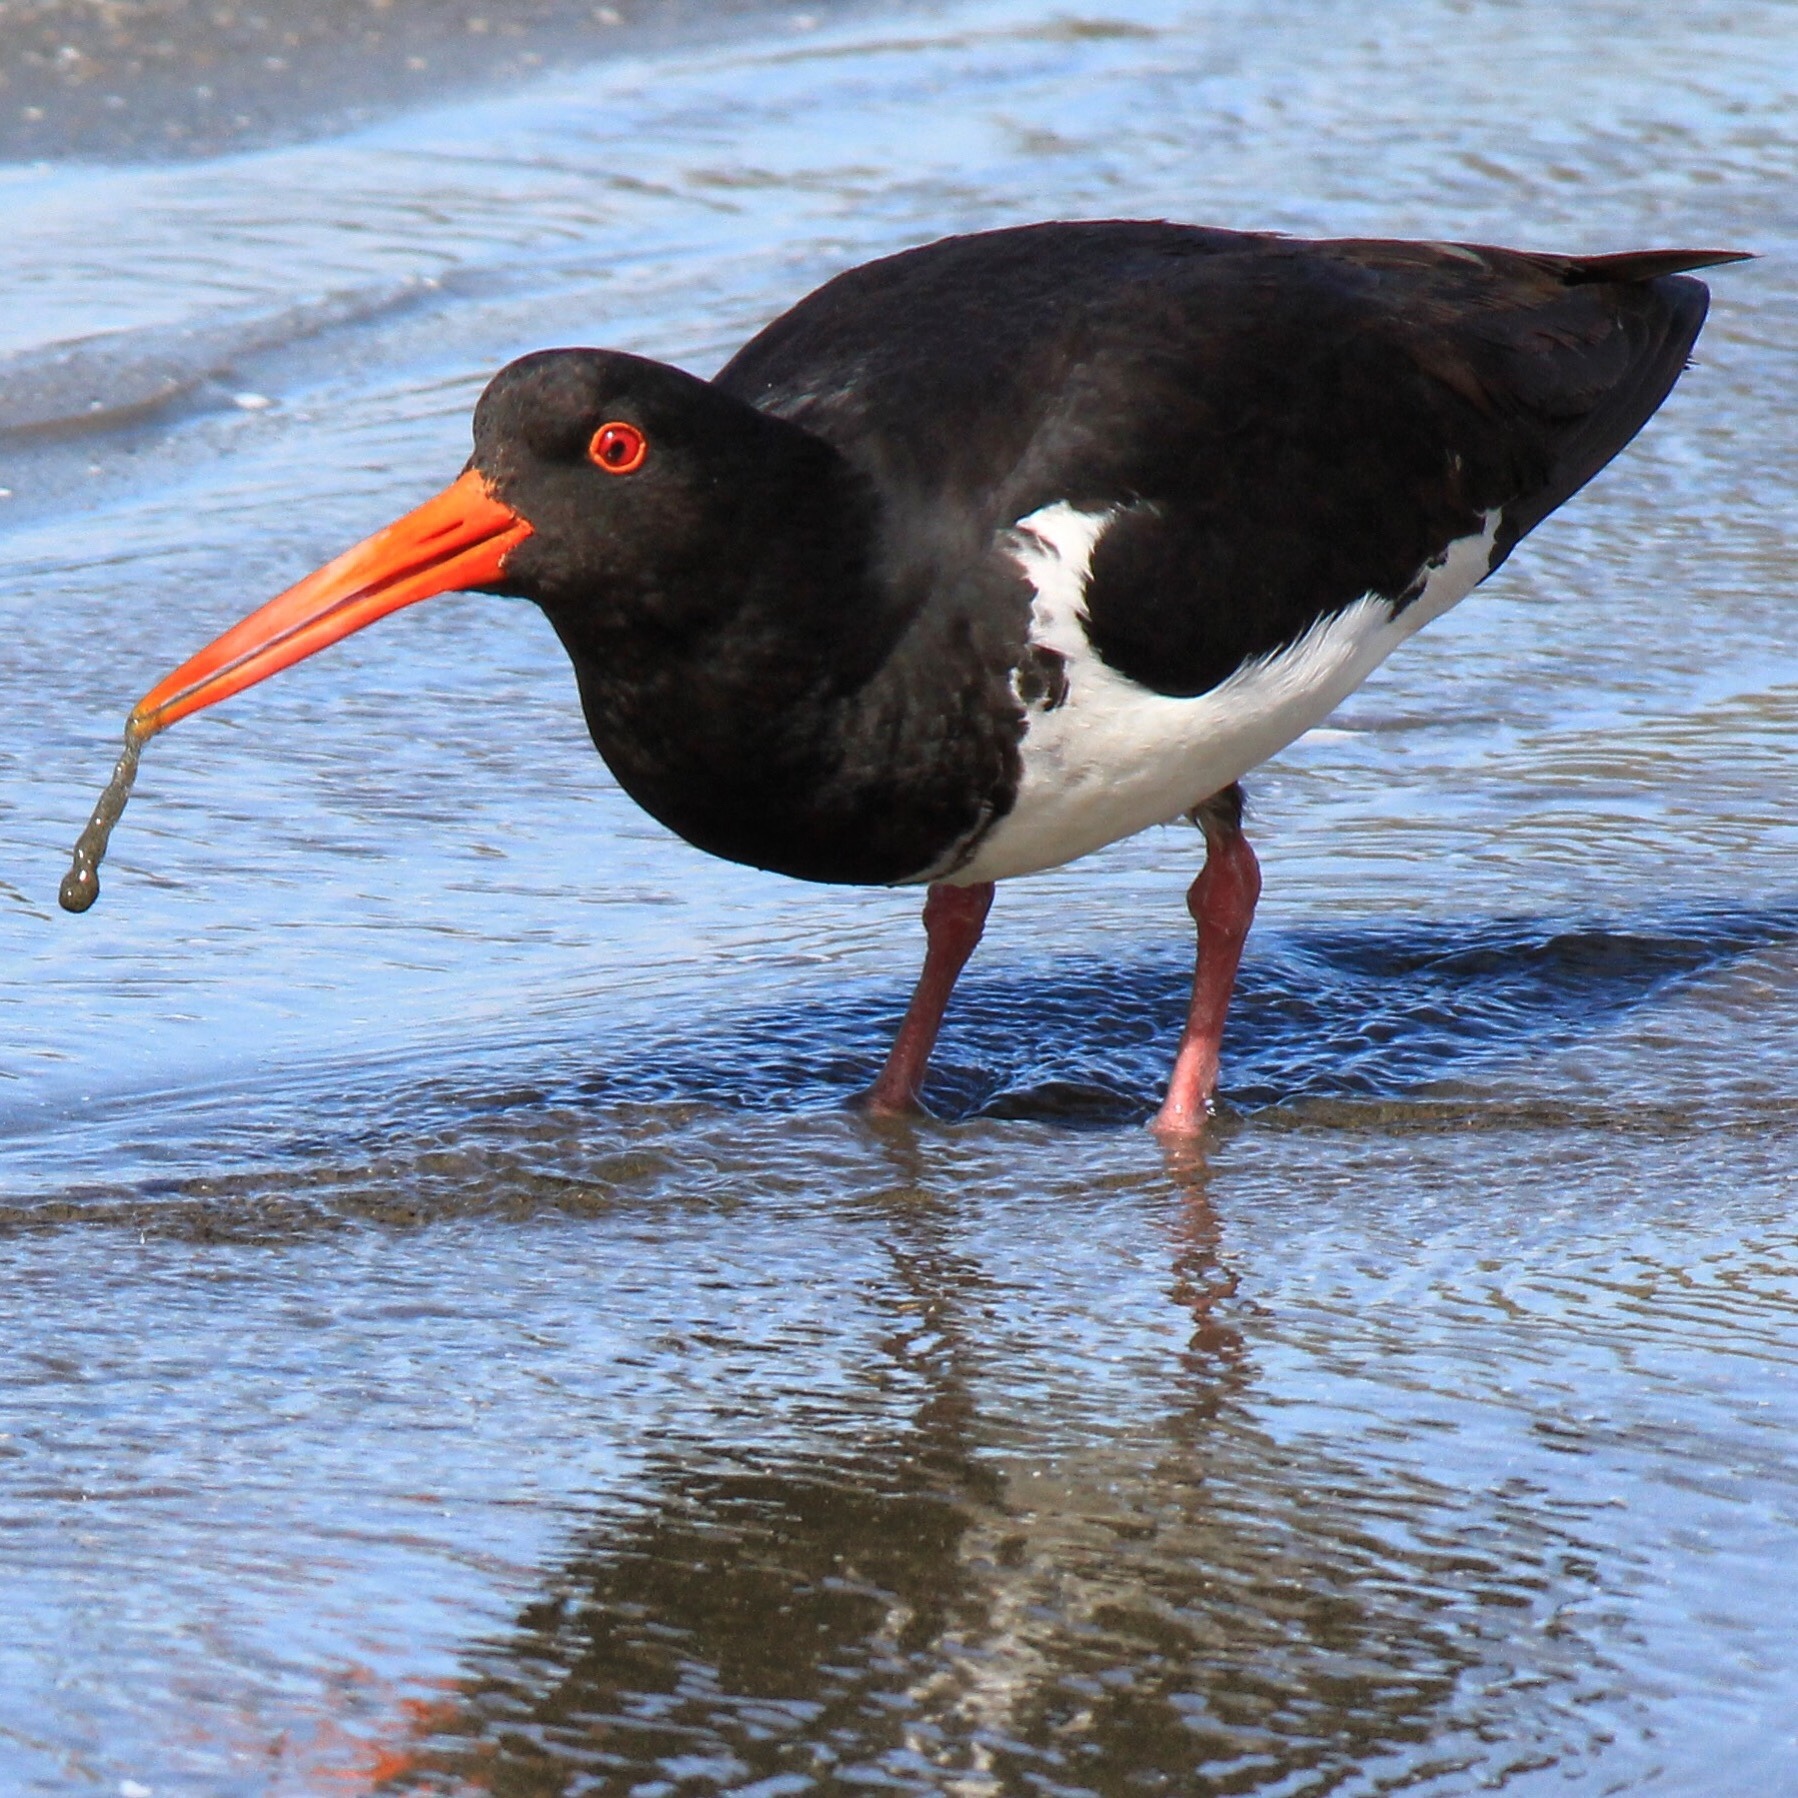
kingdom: Animalia
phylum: Chordata
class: Aves
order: Charadriiformes
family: Haematopodidae
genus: Haematopus
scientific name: Haematopus unicolor
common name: Variable oystercatcher
